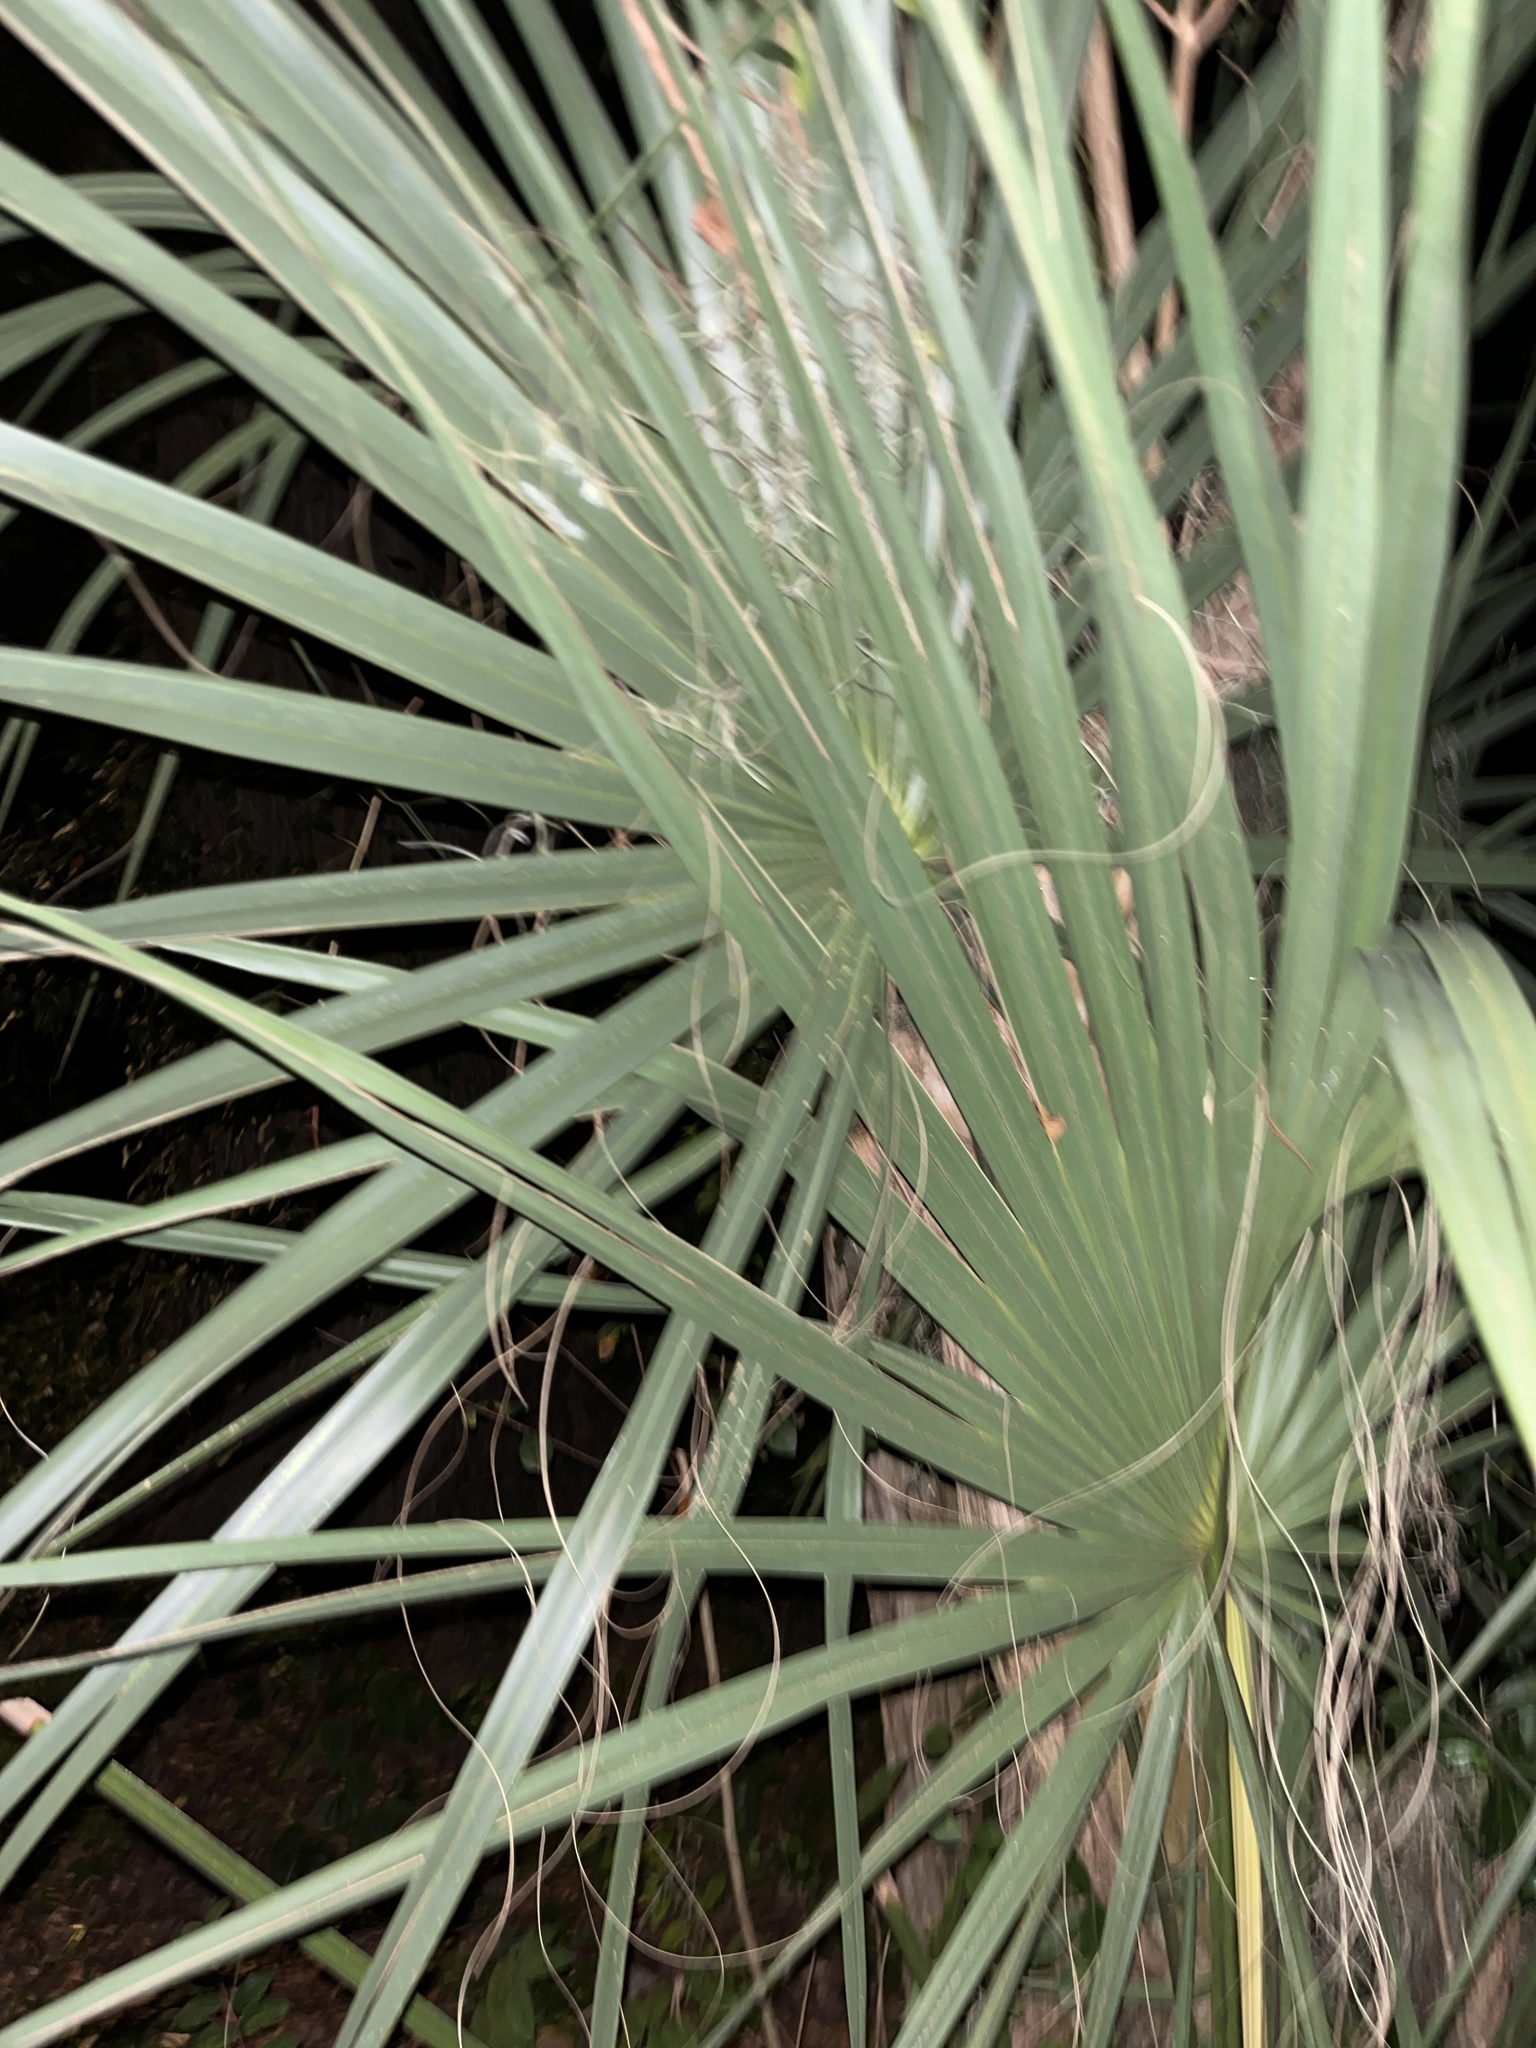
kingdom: Plantae
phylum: Tracheophyta
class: Liliopsida
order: Arecales
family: Arecaceae
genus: Sabal
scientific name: Sabal palmetto
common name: Blue palmetto
